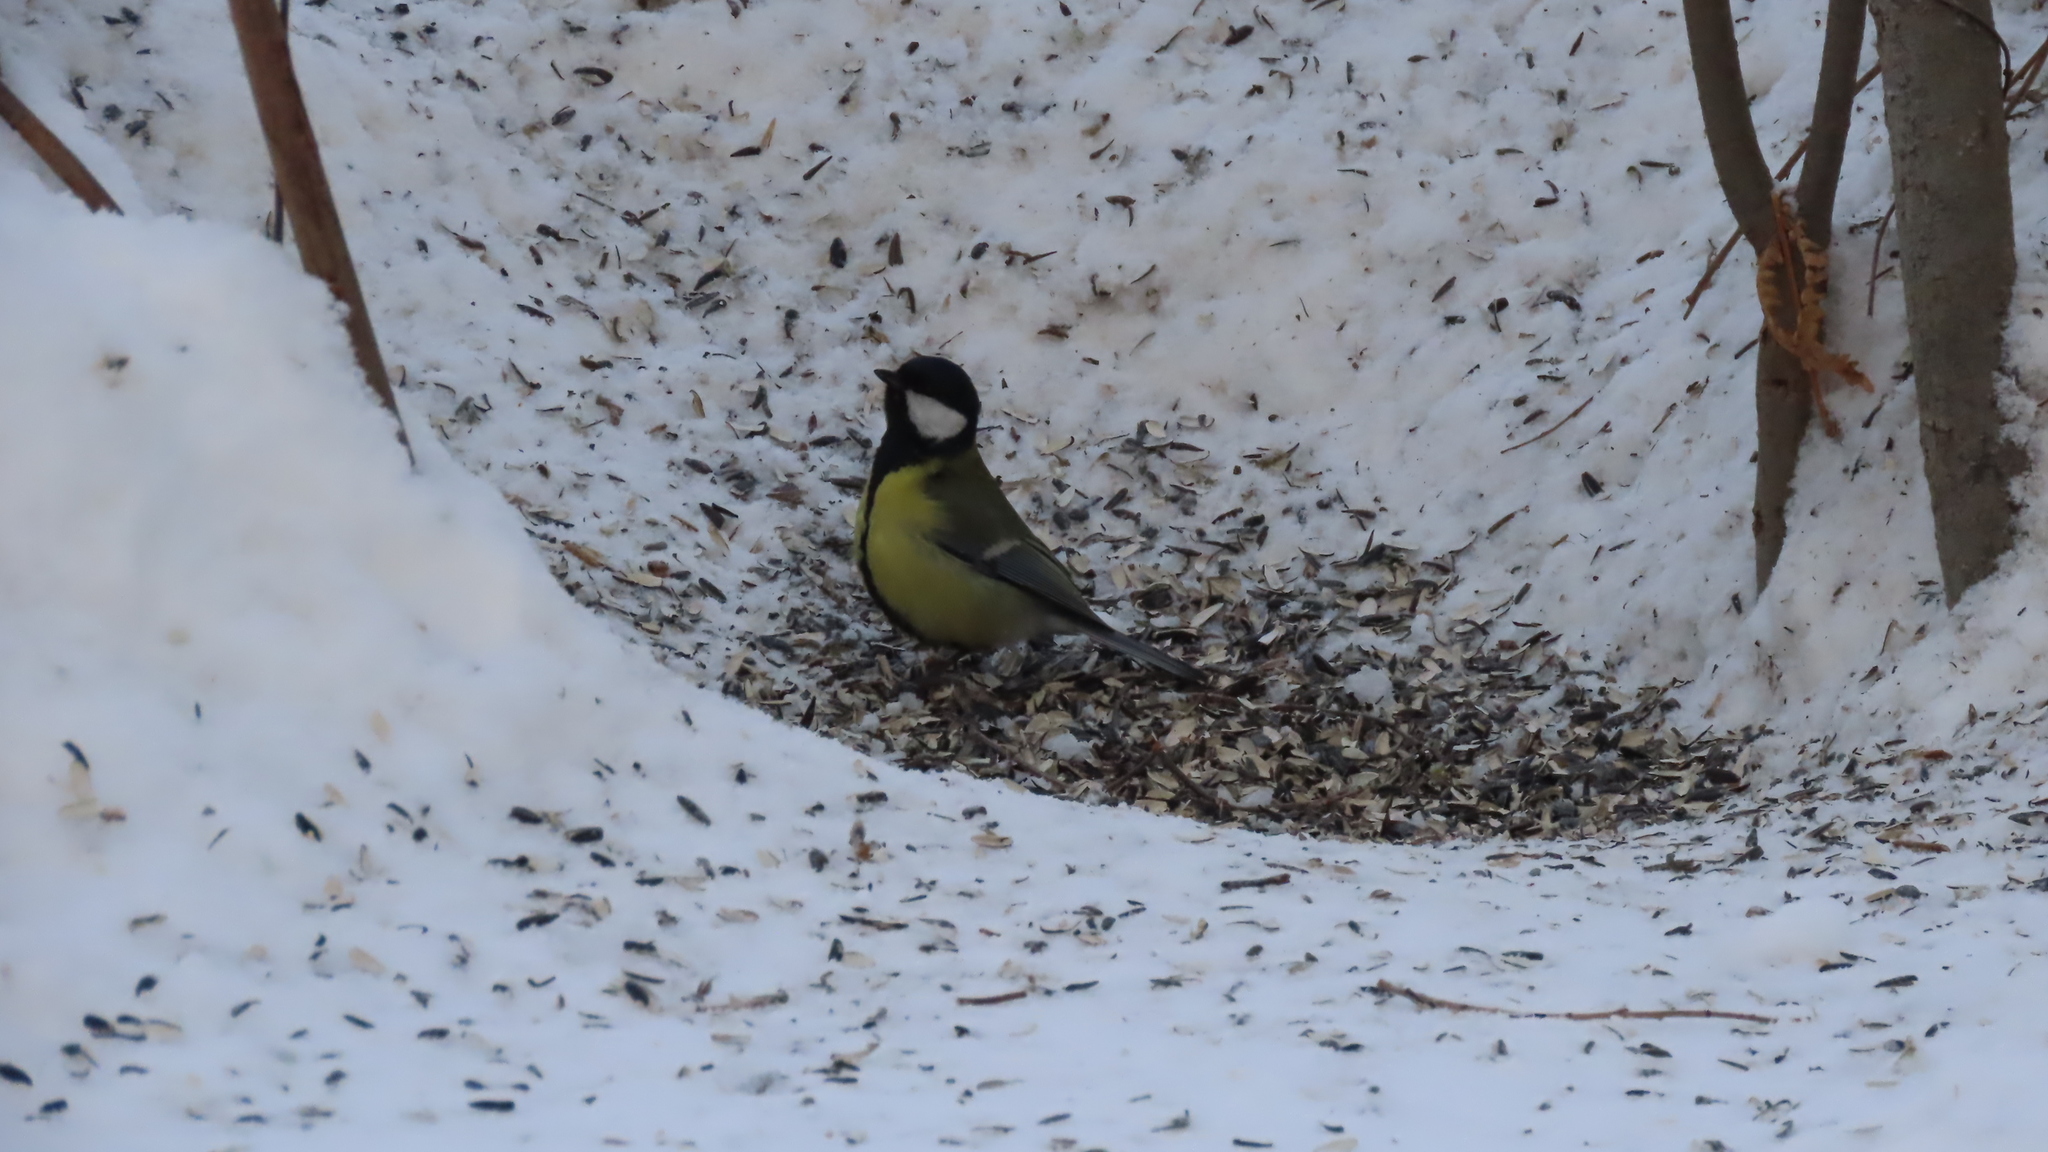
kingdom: Animalia
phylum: Chordata
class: Aves
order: Passeriformes
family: Paridae
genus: Parus
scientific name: Parus major
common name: Great tit
